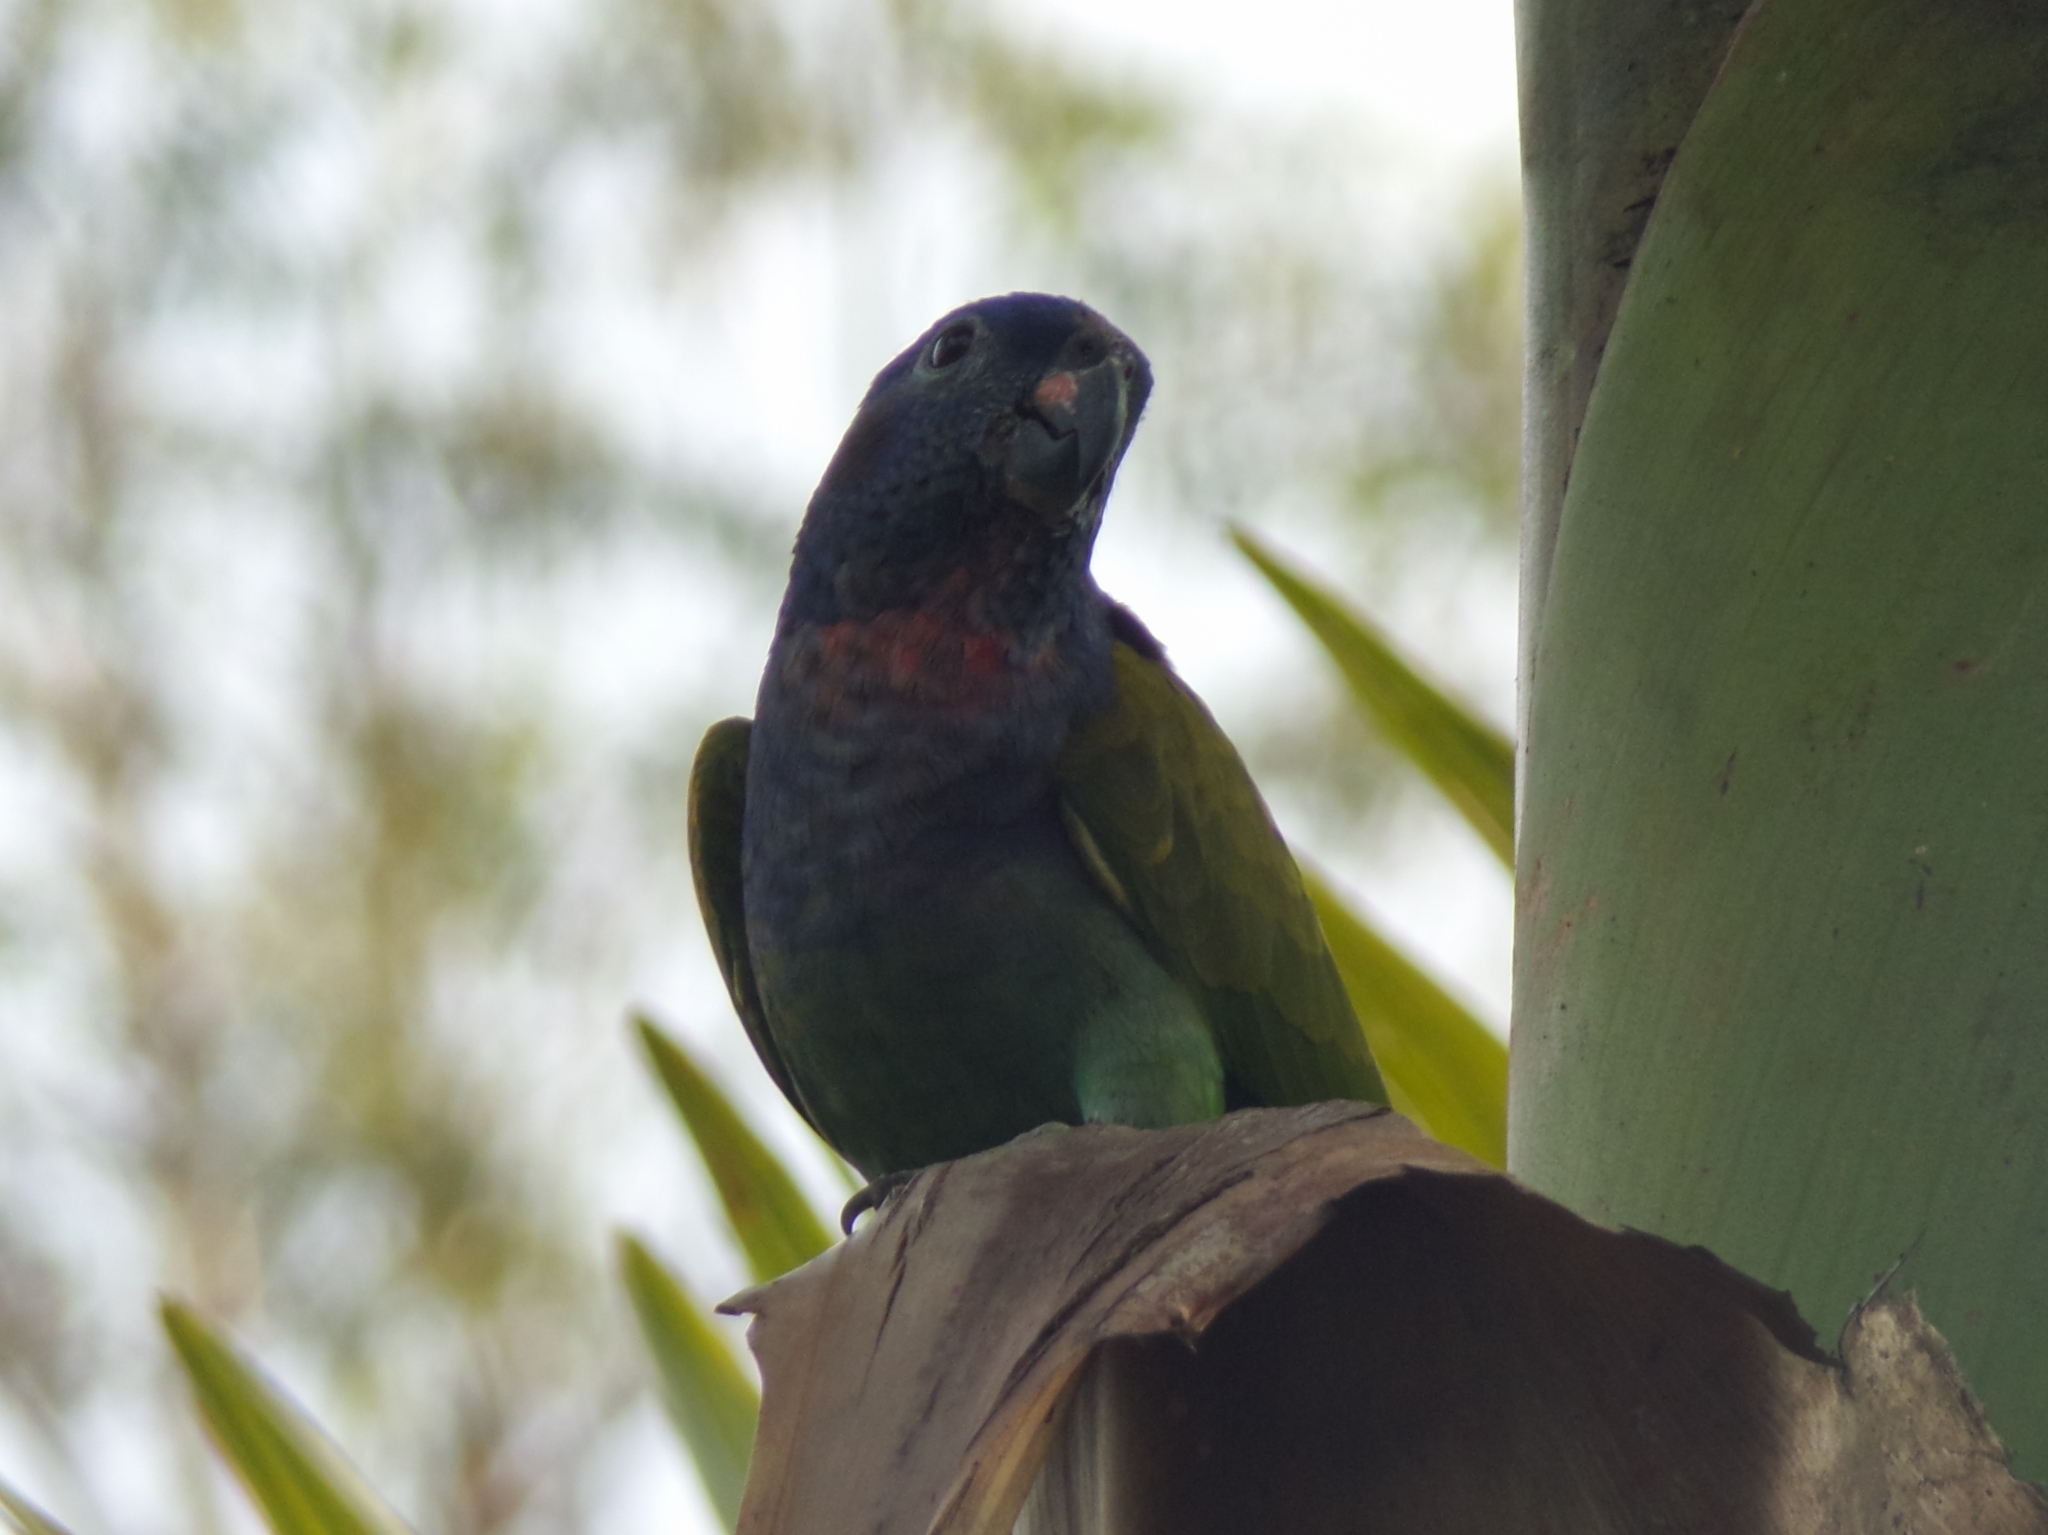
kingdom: Animalia
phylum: Chordata
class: Aves
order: Psittaciformes
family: Psittacidae
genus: Pionus
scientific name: Pionus menstruus
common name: Blue-headed parrot
